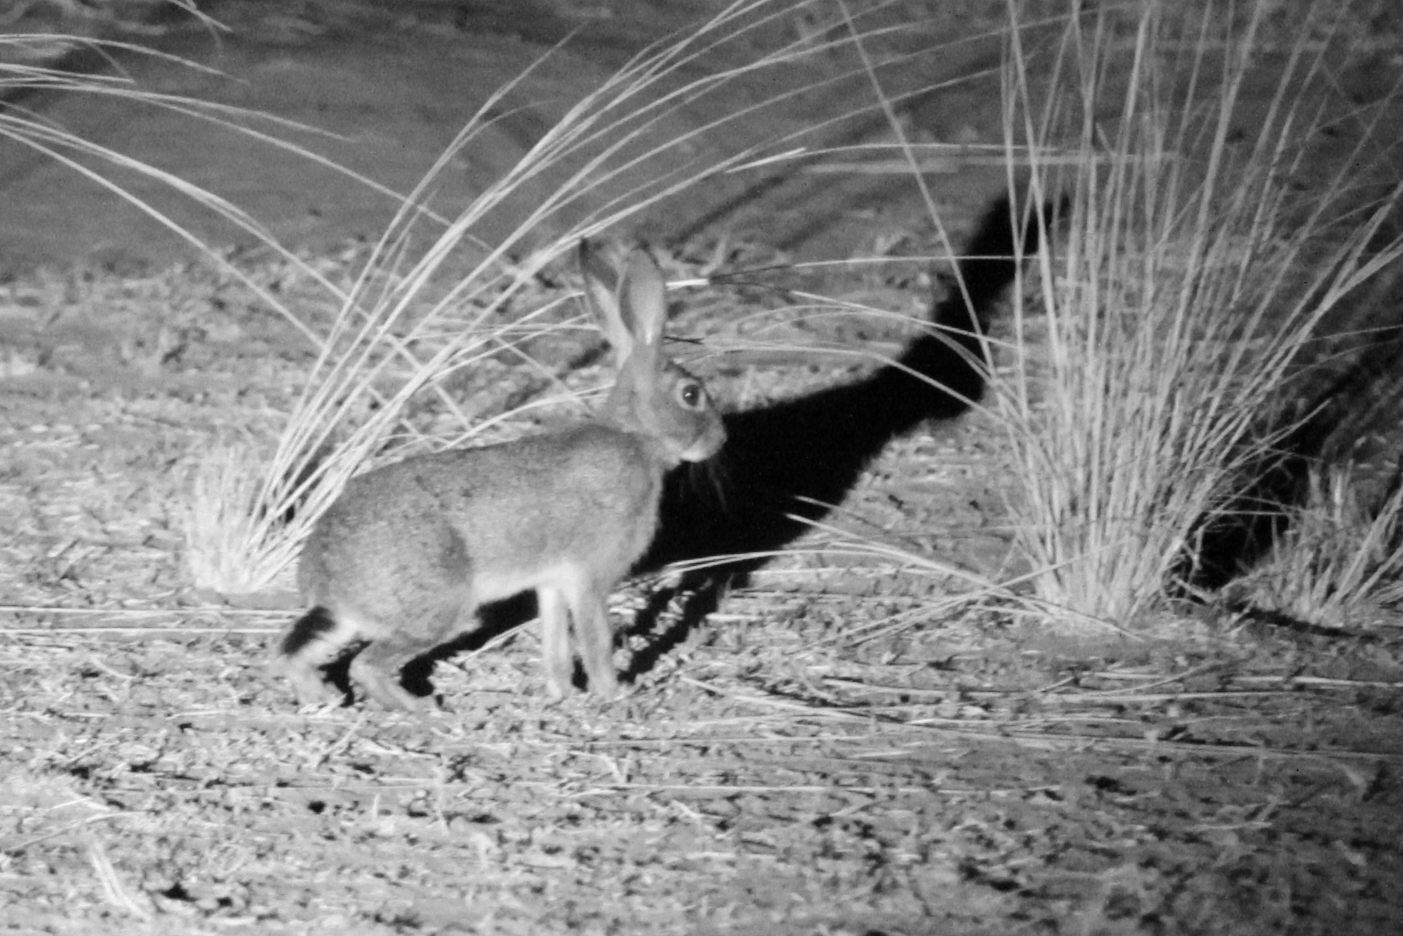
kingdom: Animalia
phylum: Chordata
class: Mammalia
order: Lagomorpha
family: Leporidae
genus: Lepus
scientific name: Lepus victoriae
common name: African savanna hare
